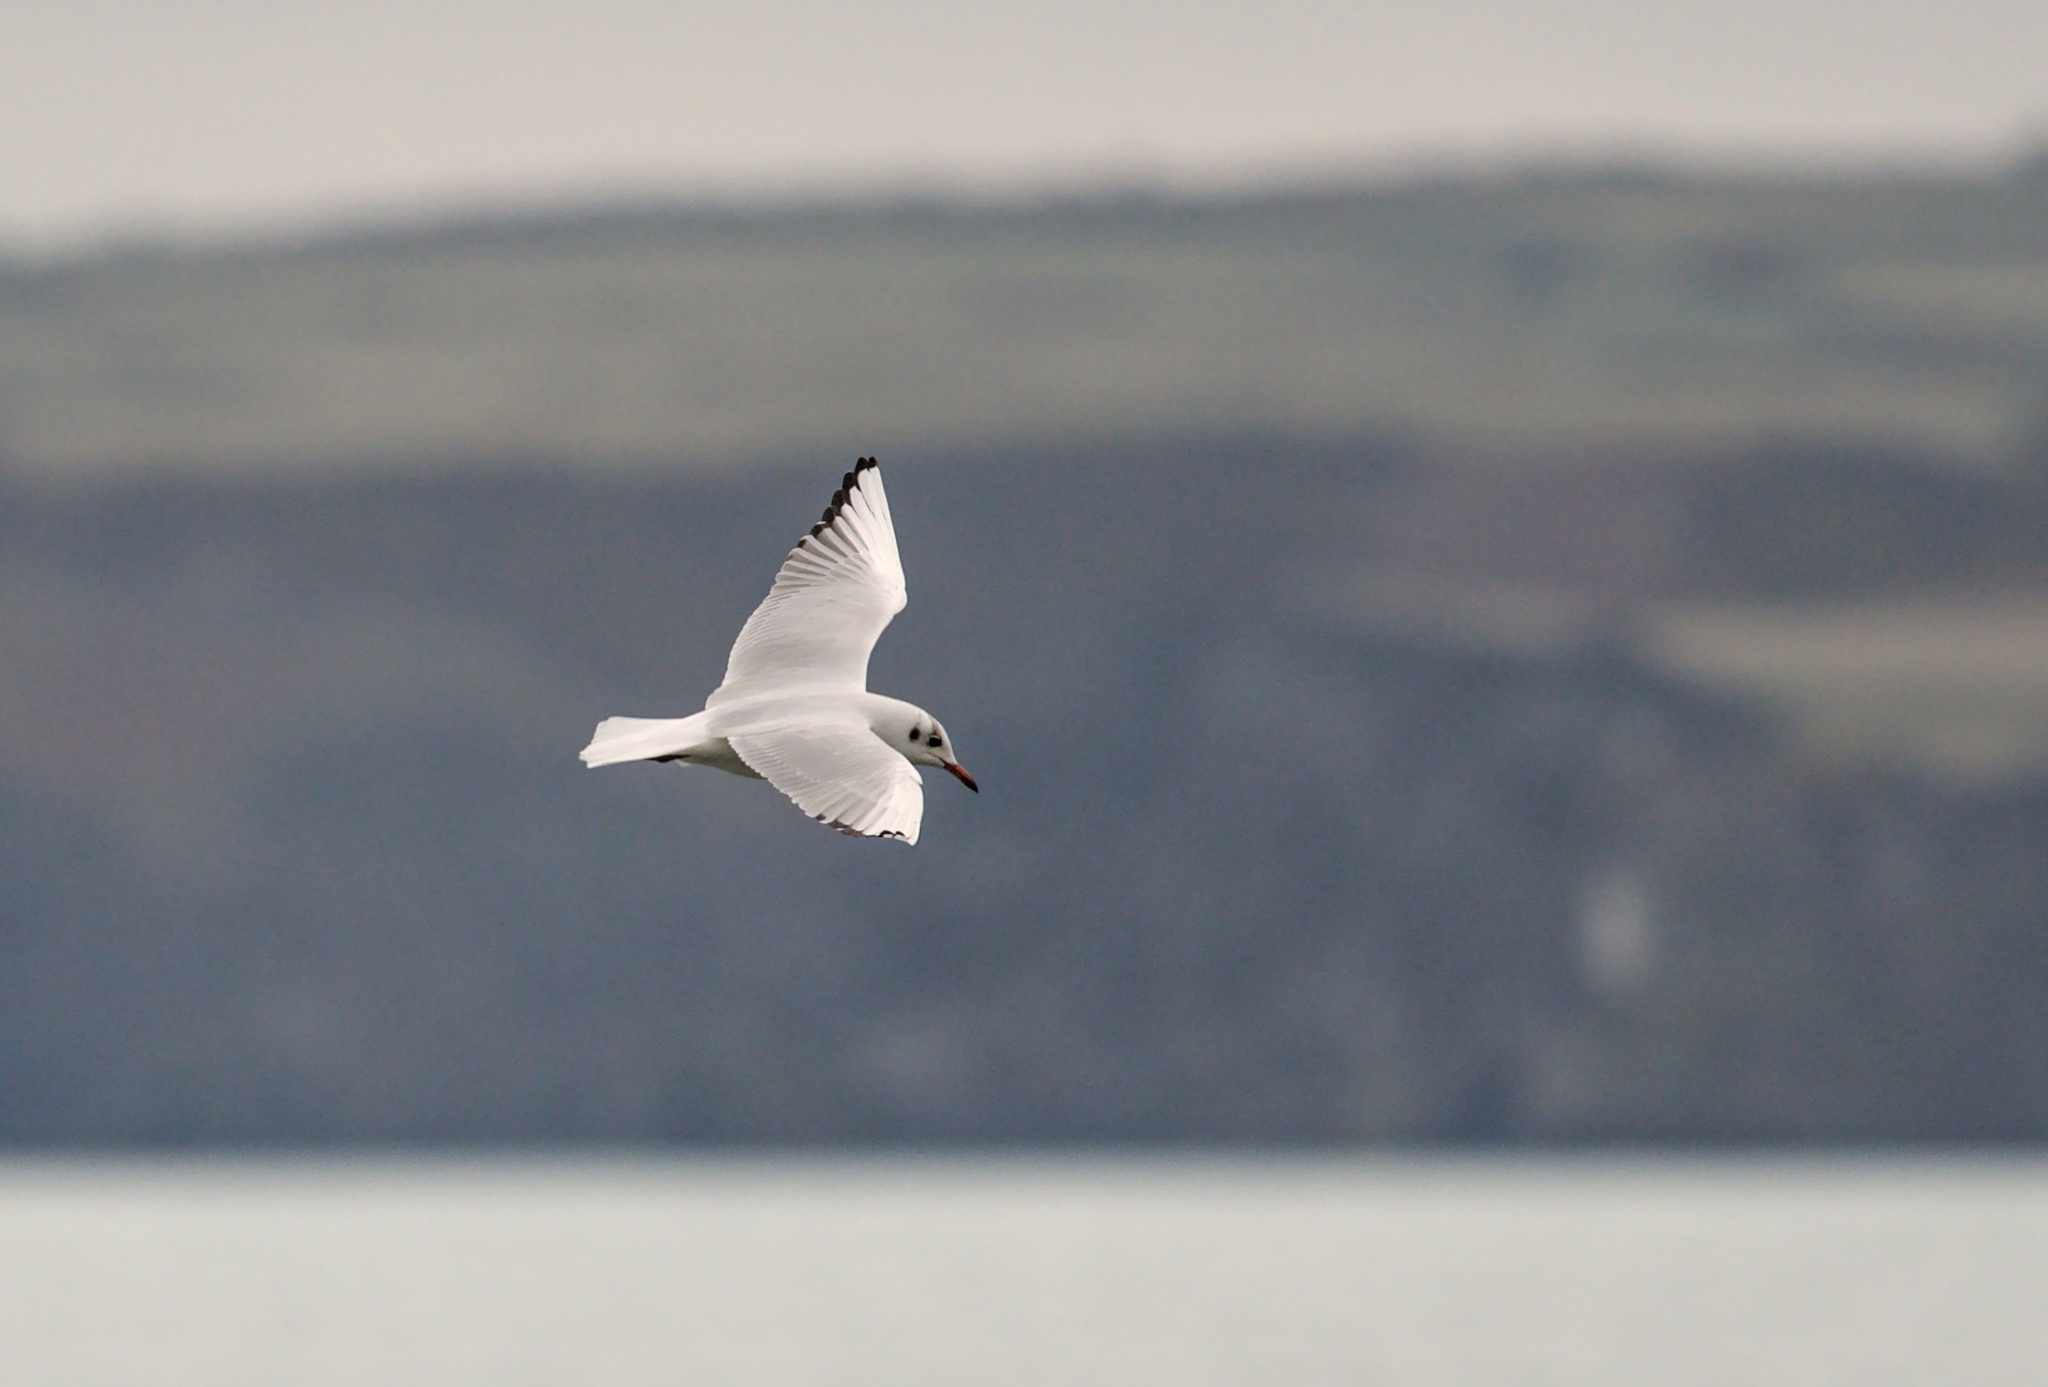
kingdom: Animalia
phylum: Chordata
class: Aves
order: Charadriiformes
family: Laridae
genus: Chroicocephalus
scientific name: Chroicocephalus ridibundus
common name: Black-headed gull
